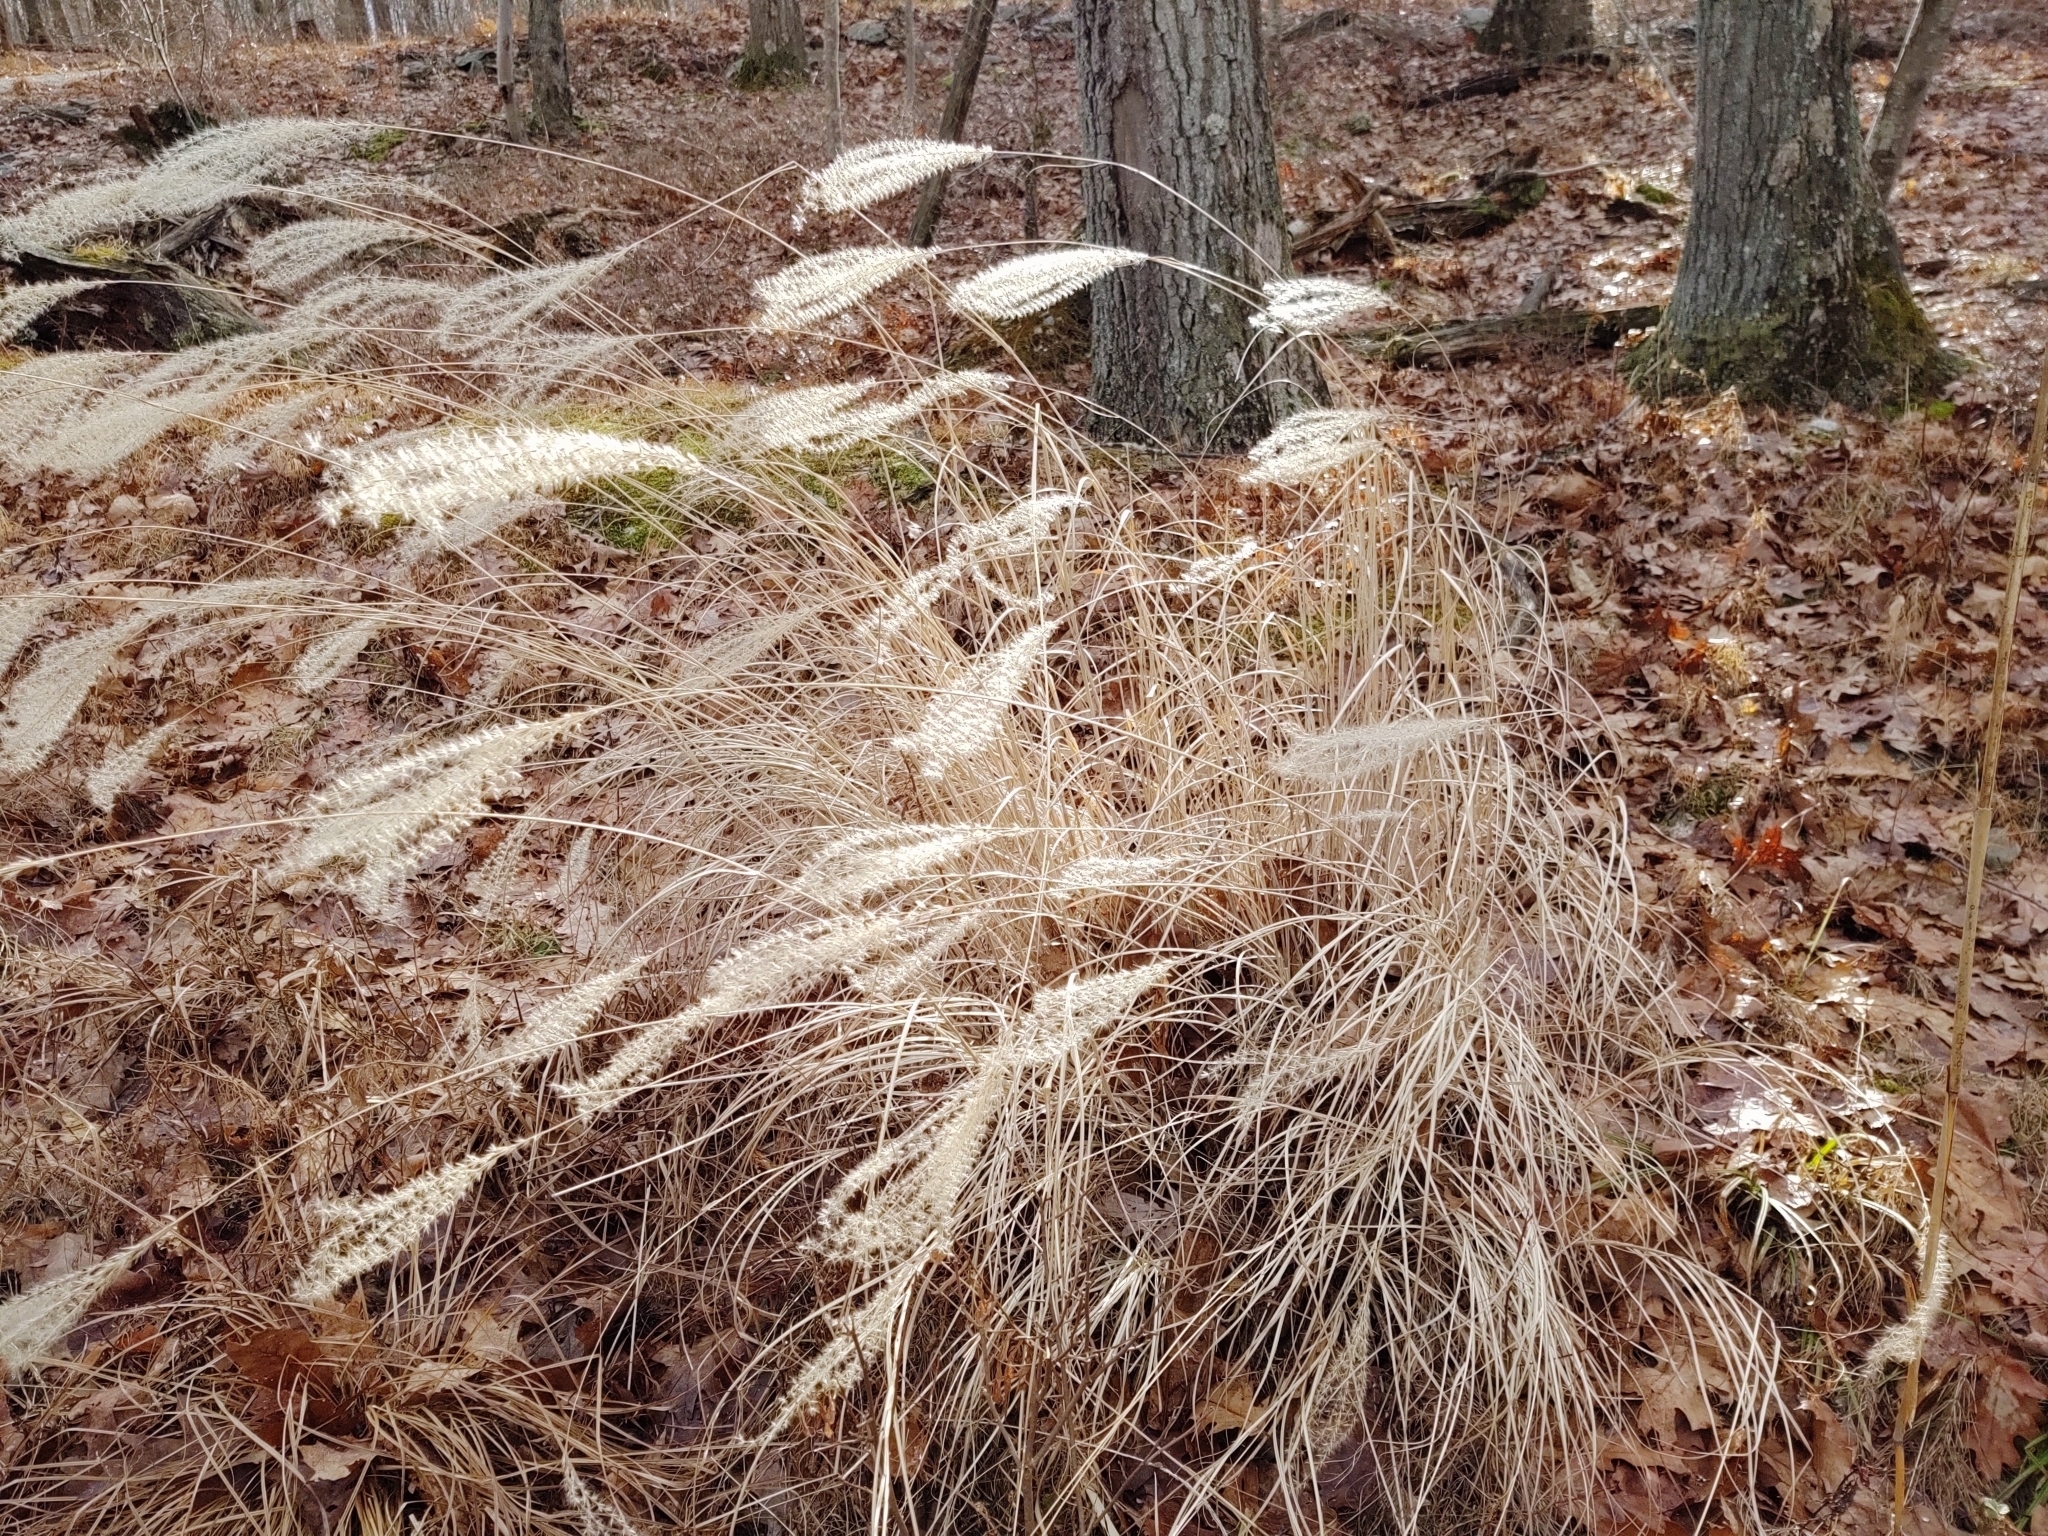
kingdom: Plantae
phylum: Tracheophyta
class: Liliopsida
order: Poales
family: Poaceae
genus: Miscanthus
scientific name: Miscanthus sinensis
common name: Chinese silvergrass
